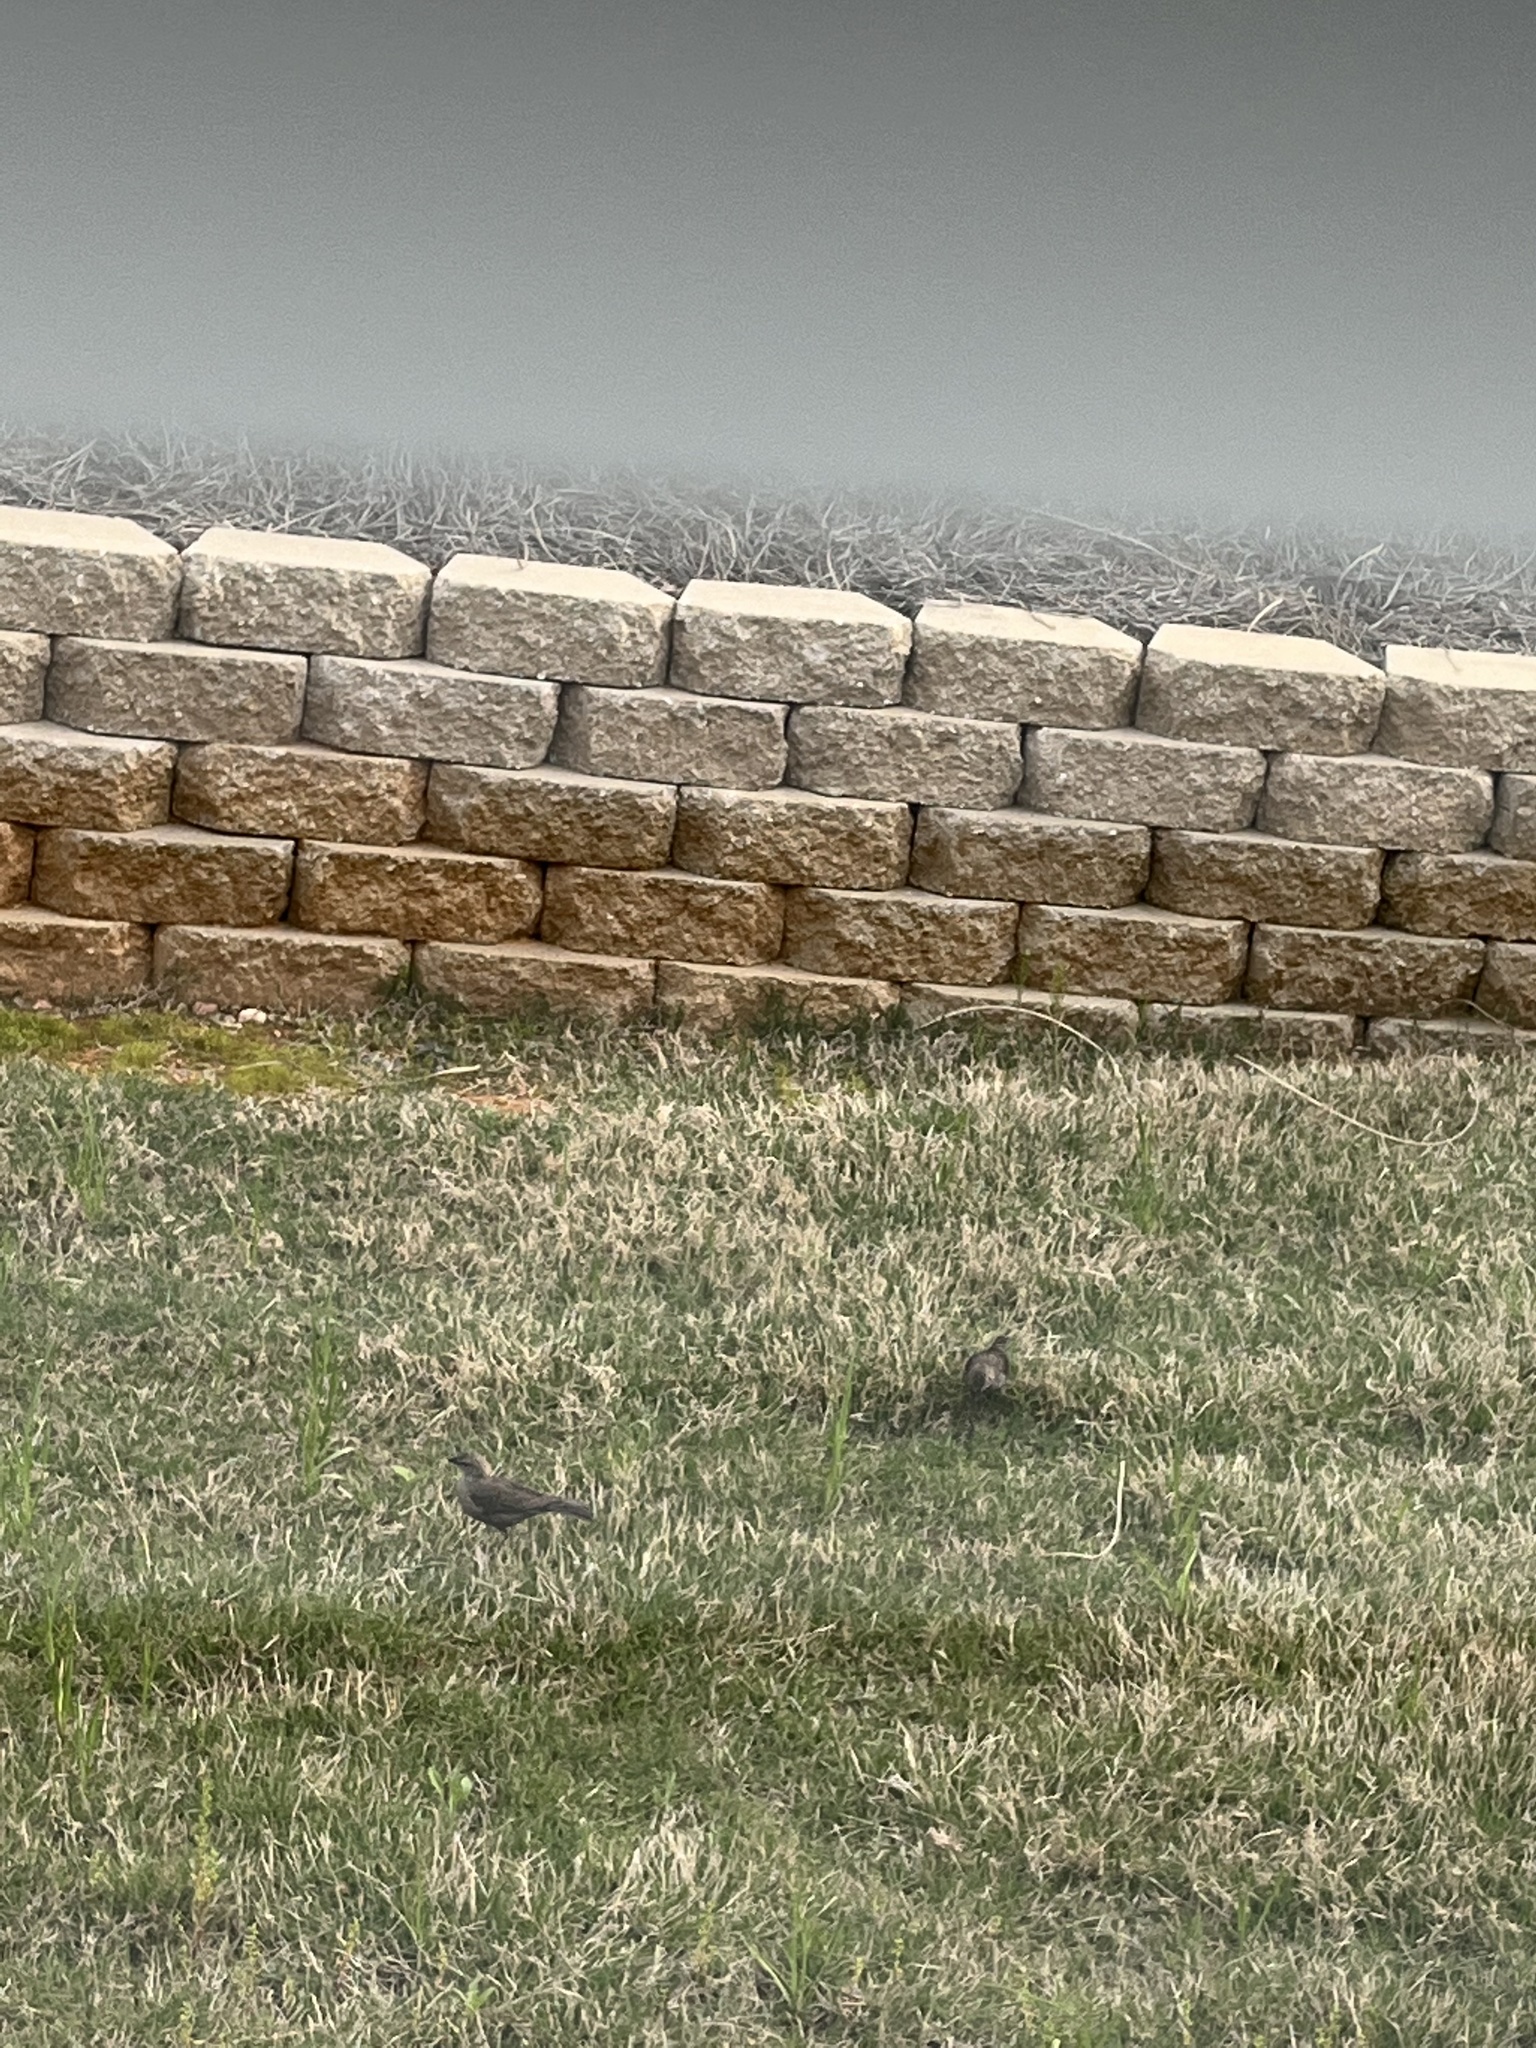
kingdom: Animalia
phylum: Chordata
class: Aves
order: Passeriformes
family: Icteridae
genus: Molothrus
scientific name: Molothrus ater
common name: Brown-headed cowbird
